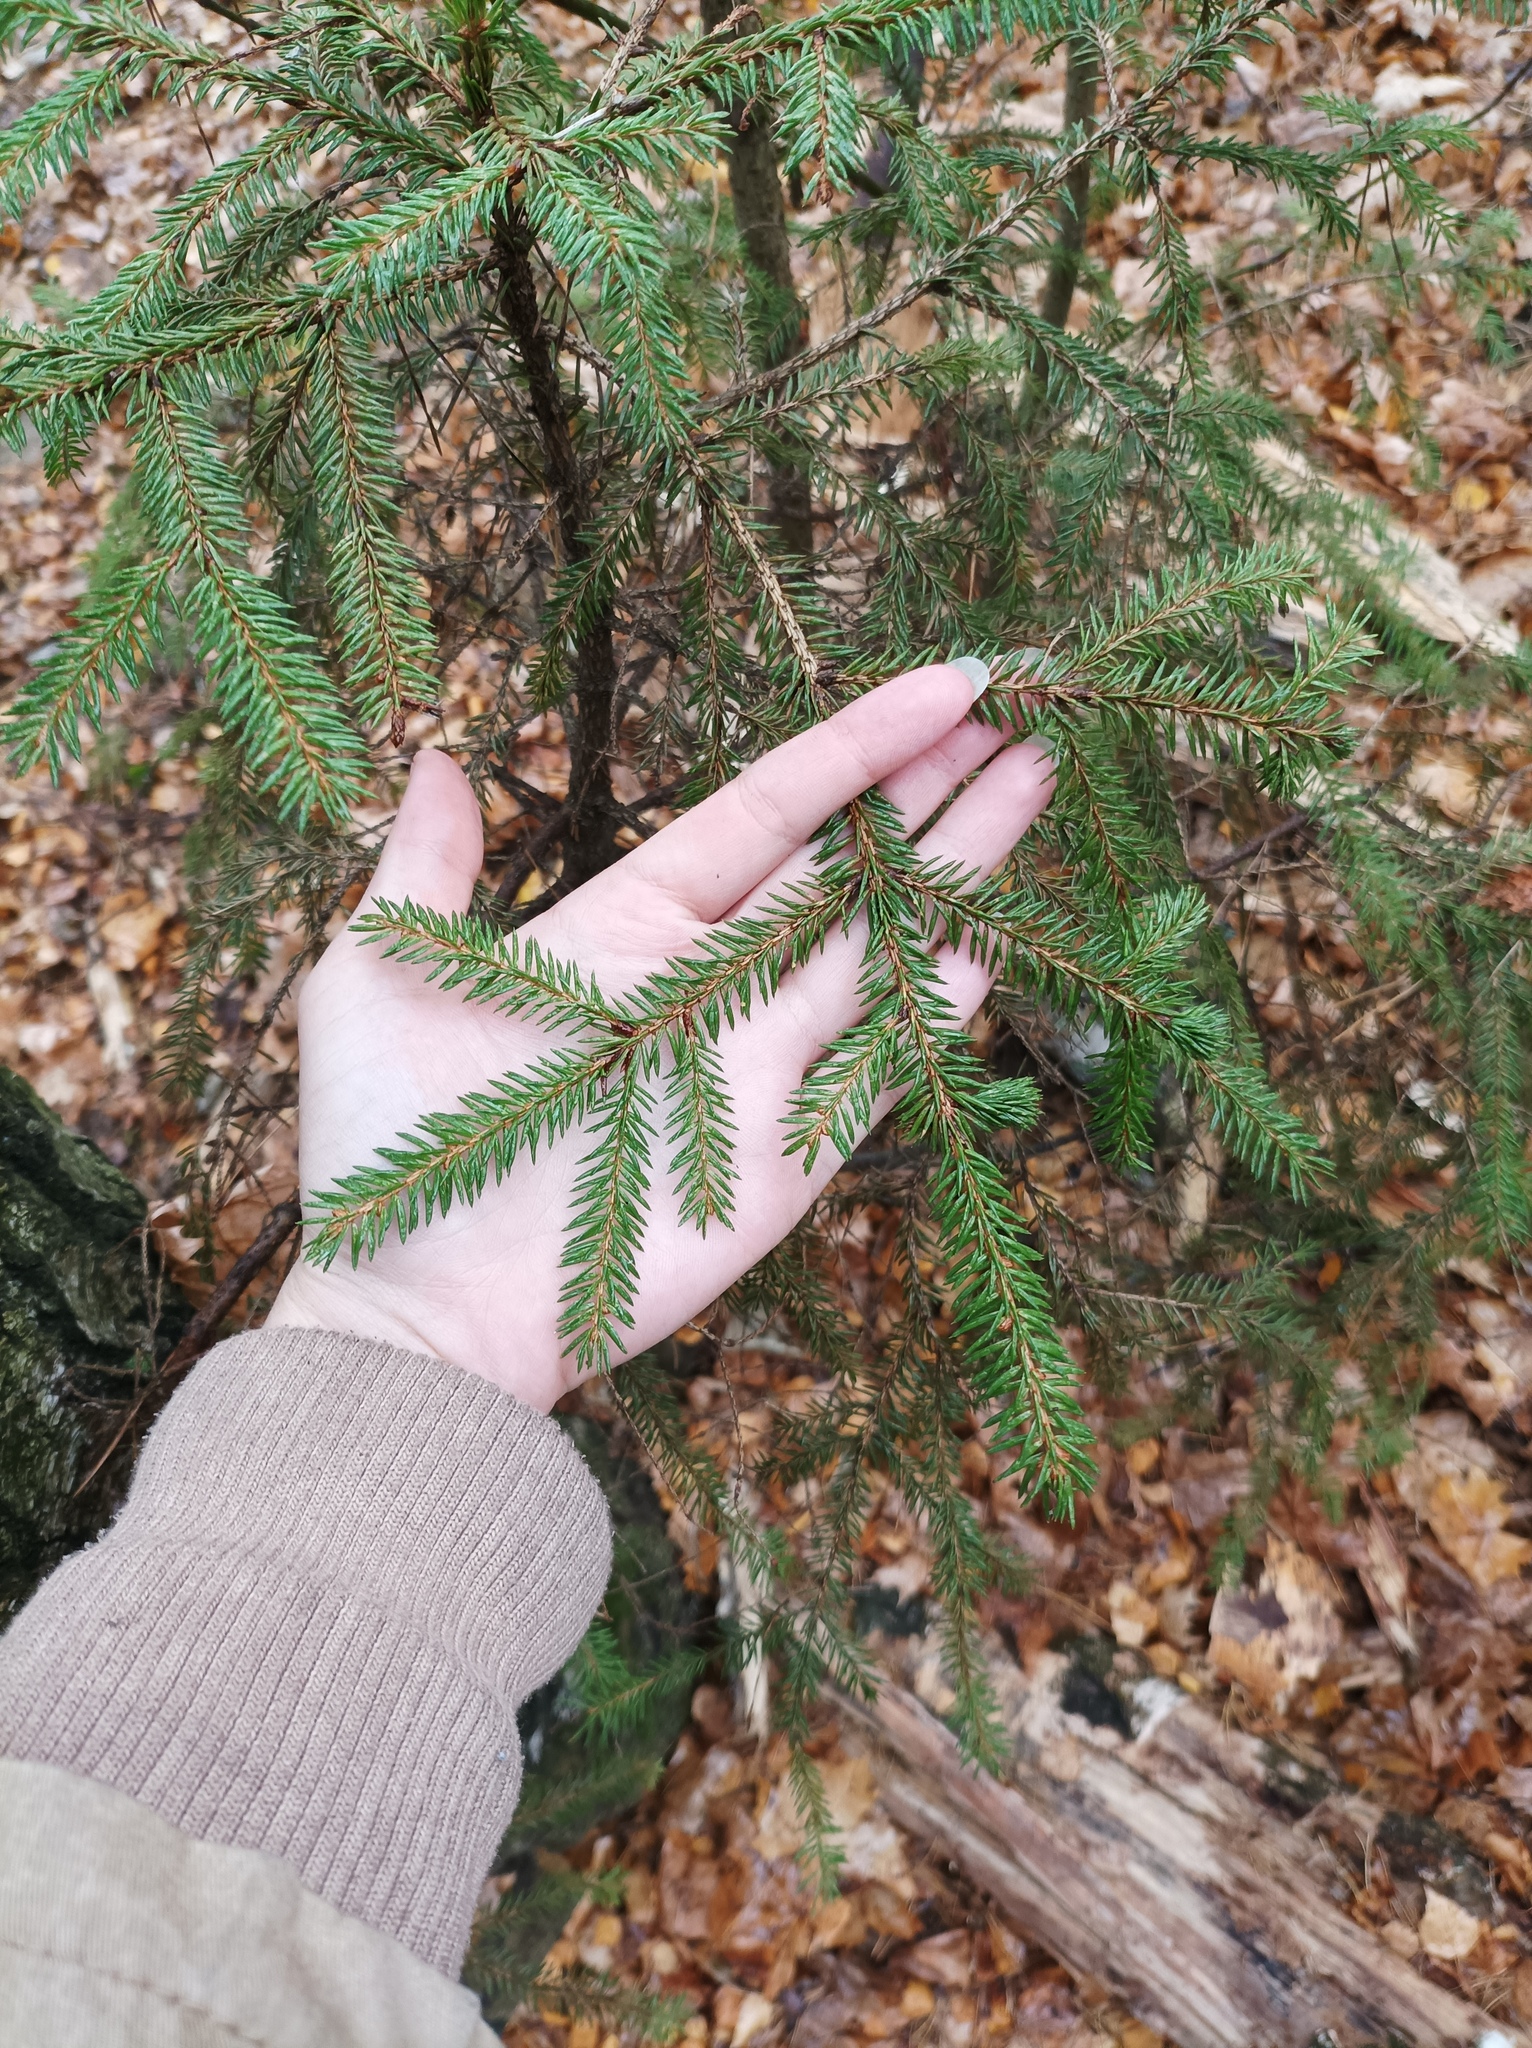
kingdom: Plantae
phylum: Tracheophyta
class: Pinopsida
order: Pinales
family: Pinaceae
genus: Picea
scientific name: Picea abies
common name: Norway spruce
